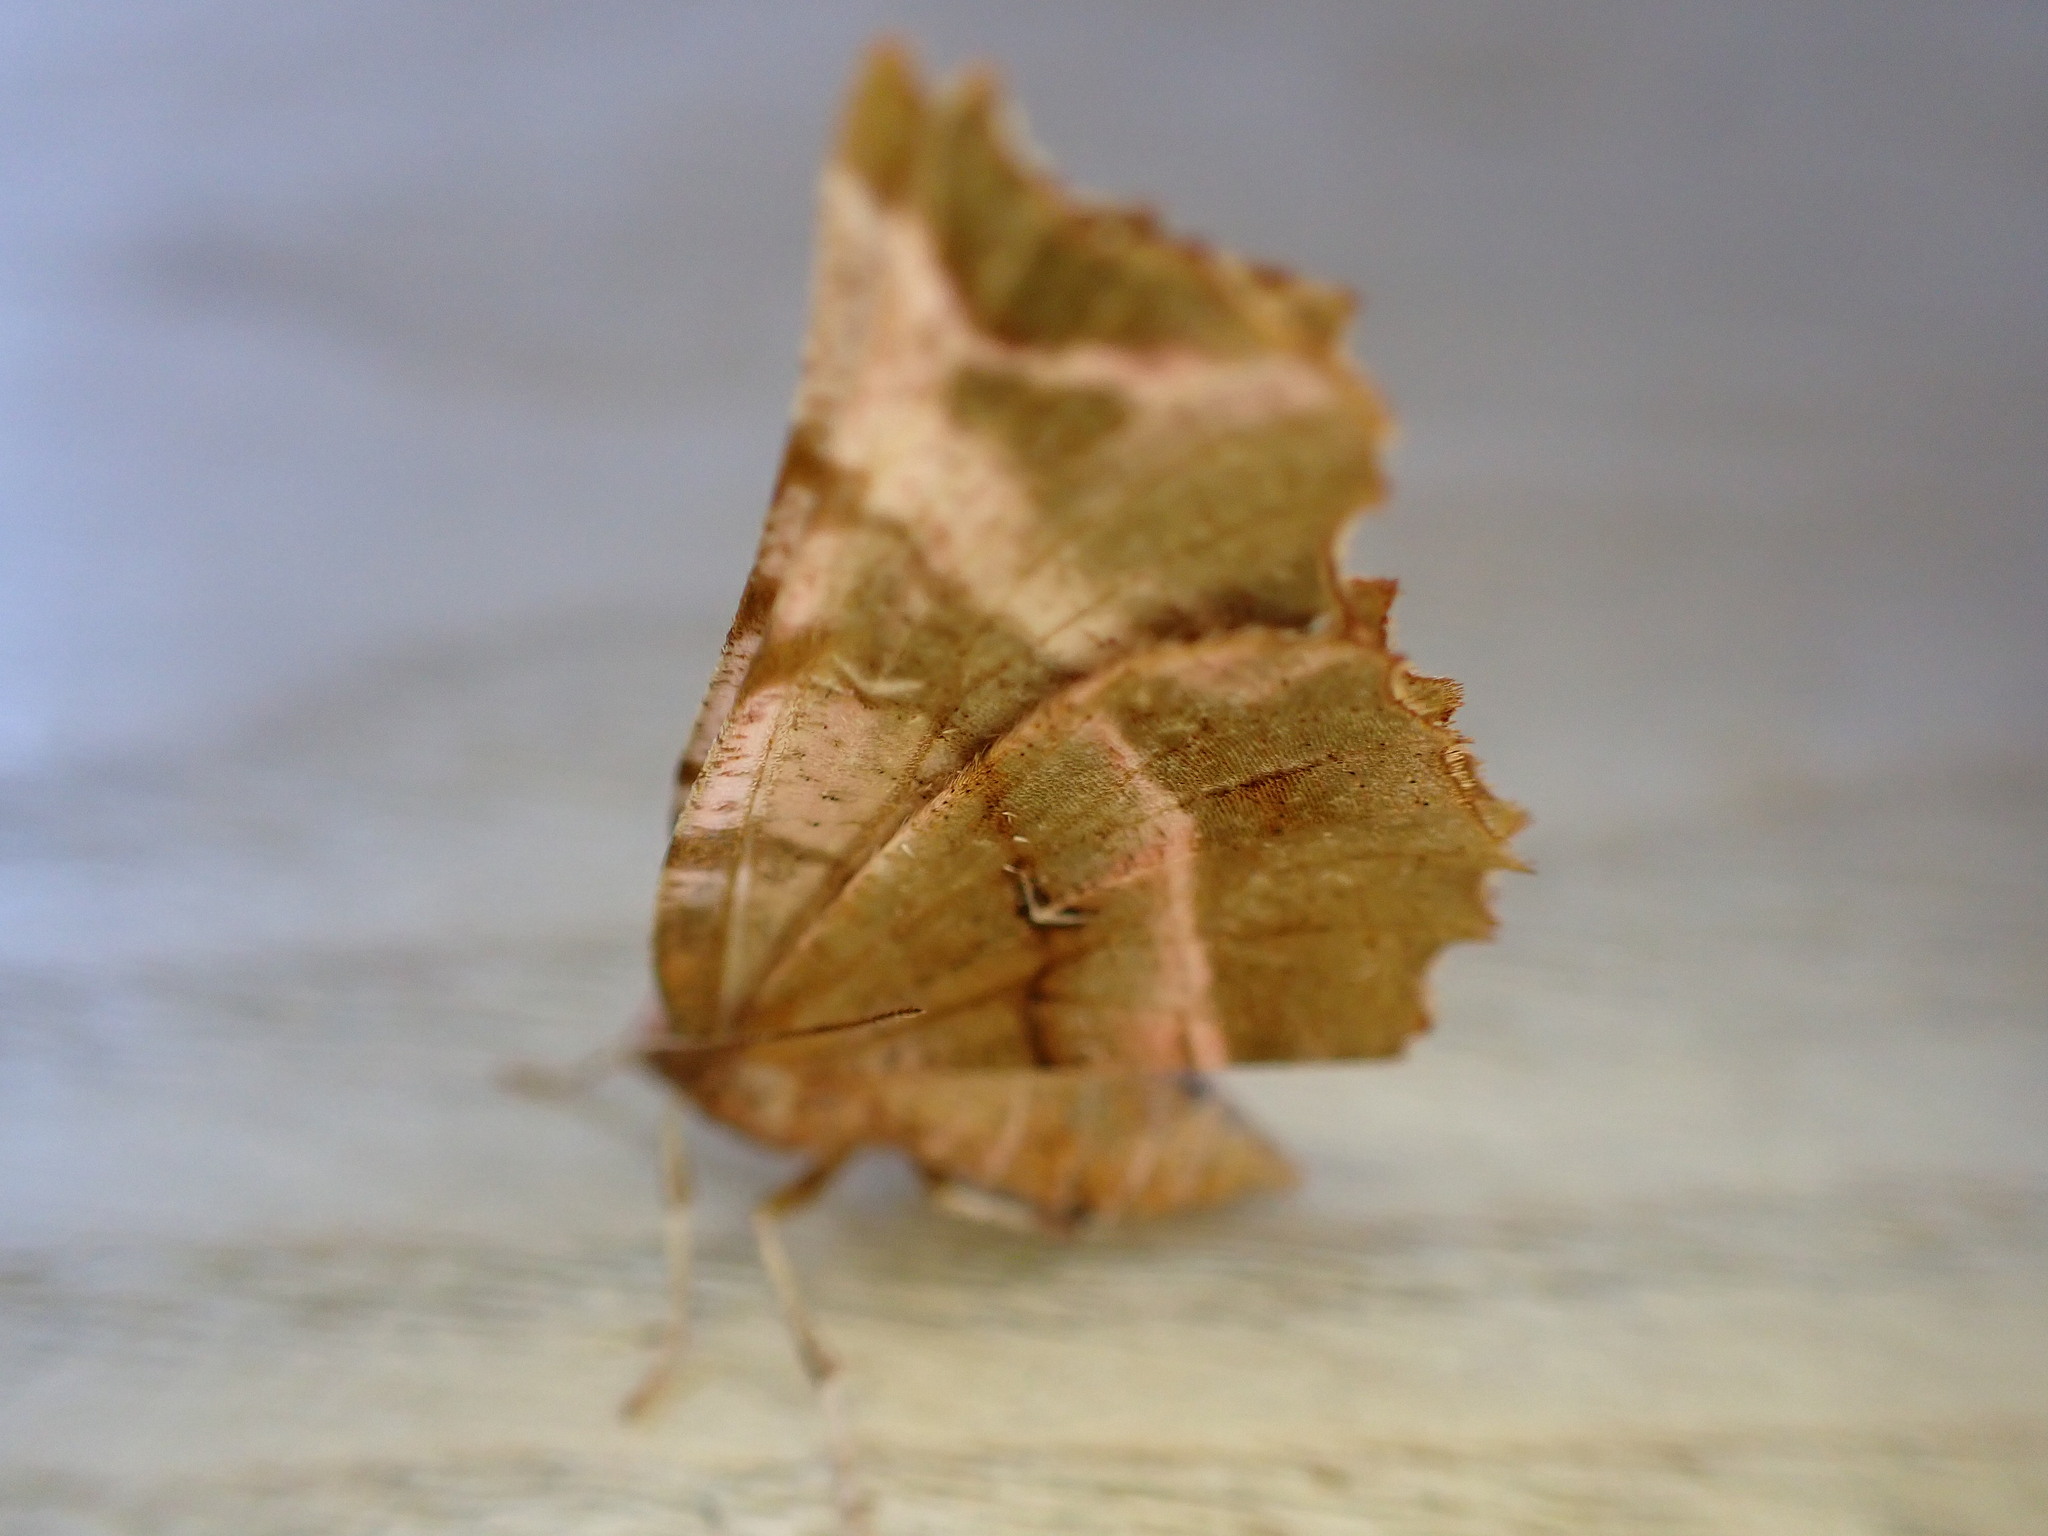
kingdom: Animalia
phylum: Arthropoda
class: Insecta
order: Lepidoptera
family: Geometridae
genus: Selenia
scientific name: Selenia dentaria
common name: Early thorn
